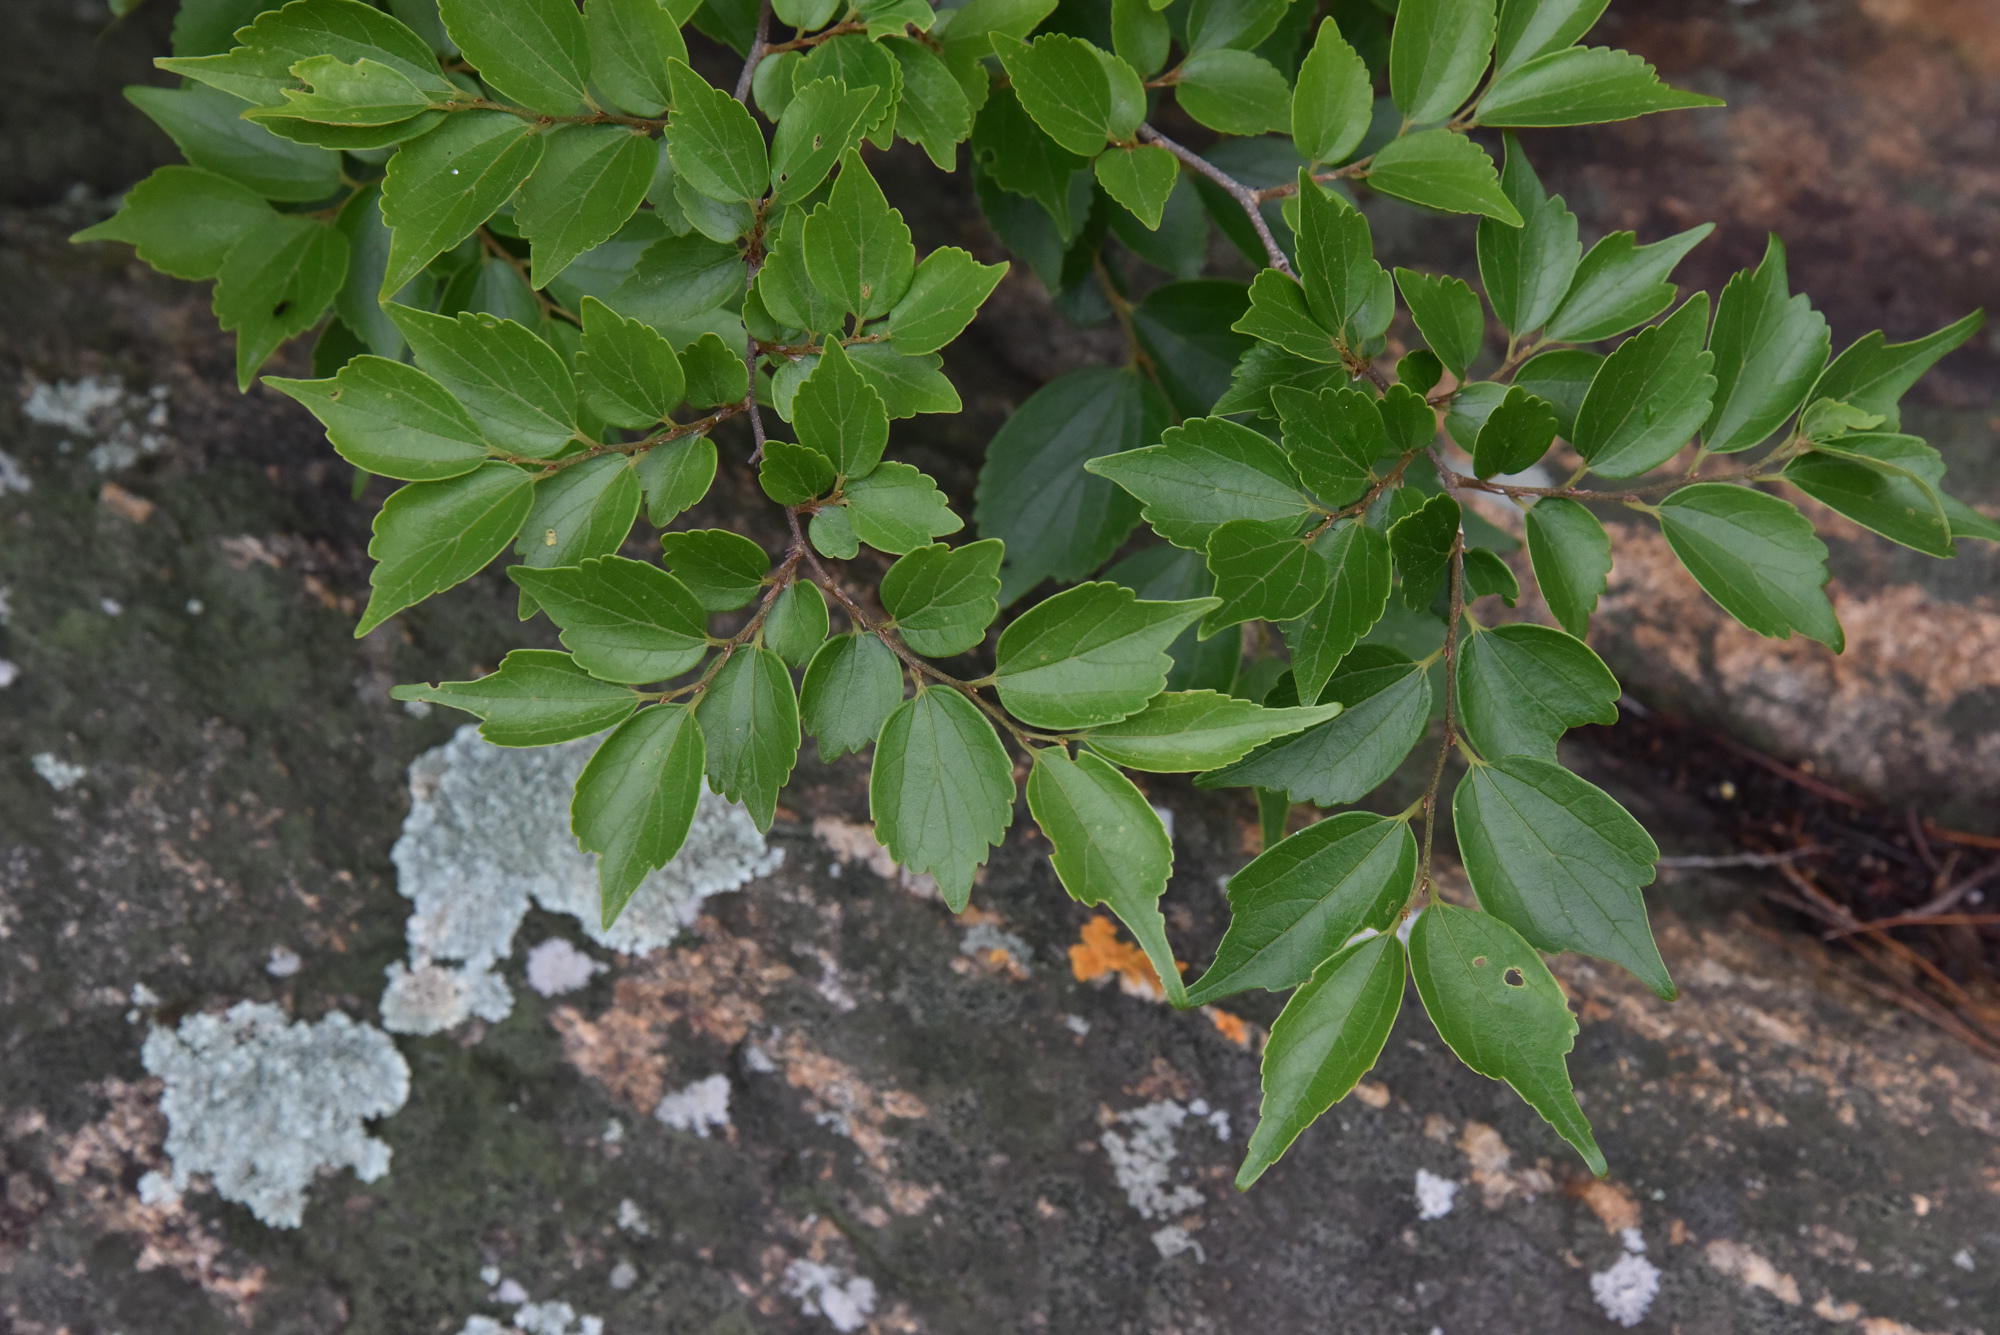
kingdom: Plantae
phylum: Tracheophyta
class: Magnoliopsida
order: Rosales
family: Cannabaceae
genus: Celtis
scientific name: Celtis biondii
